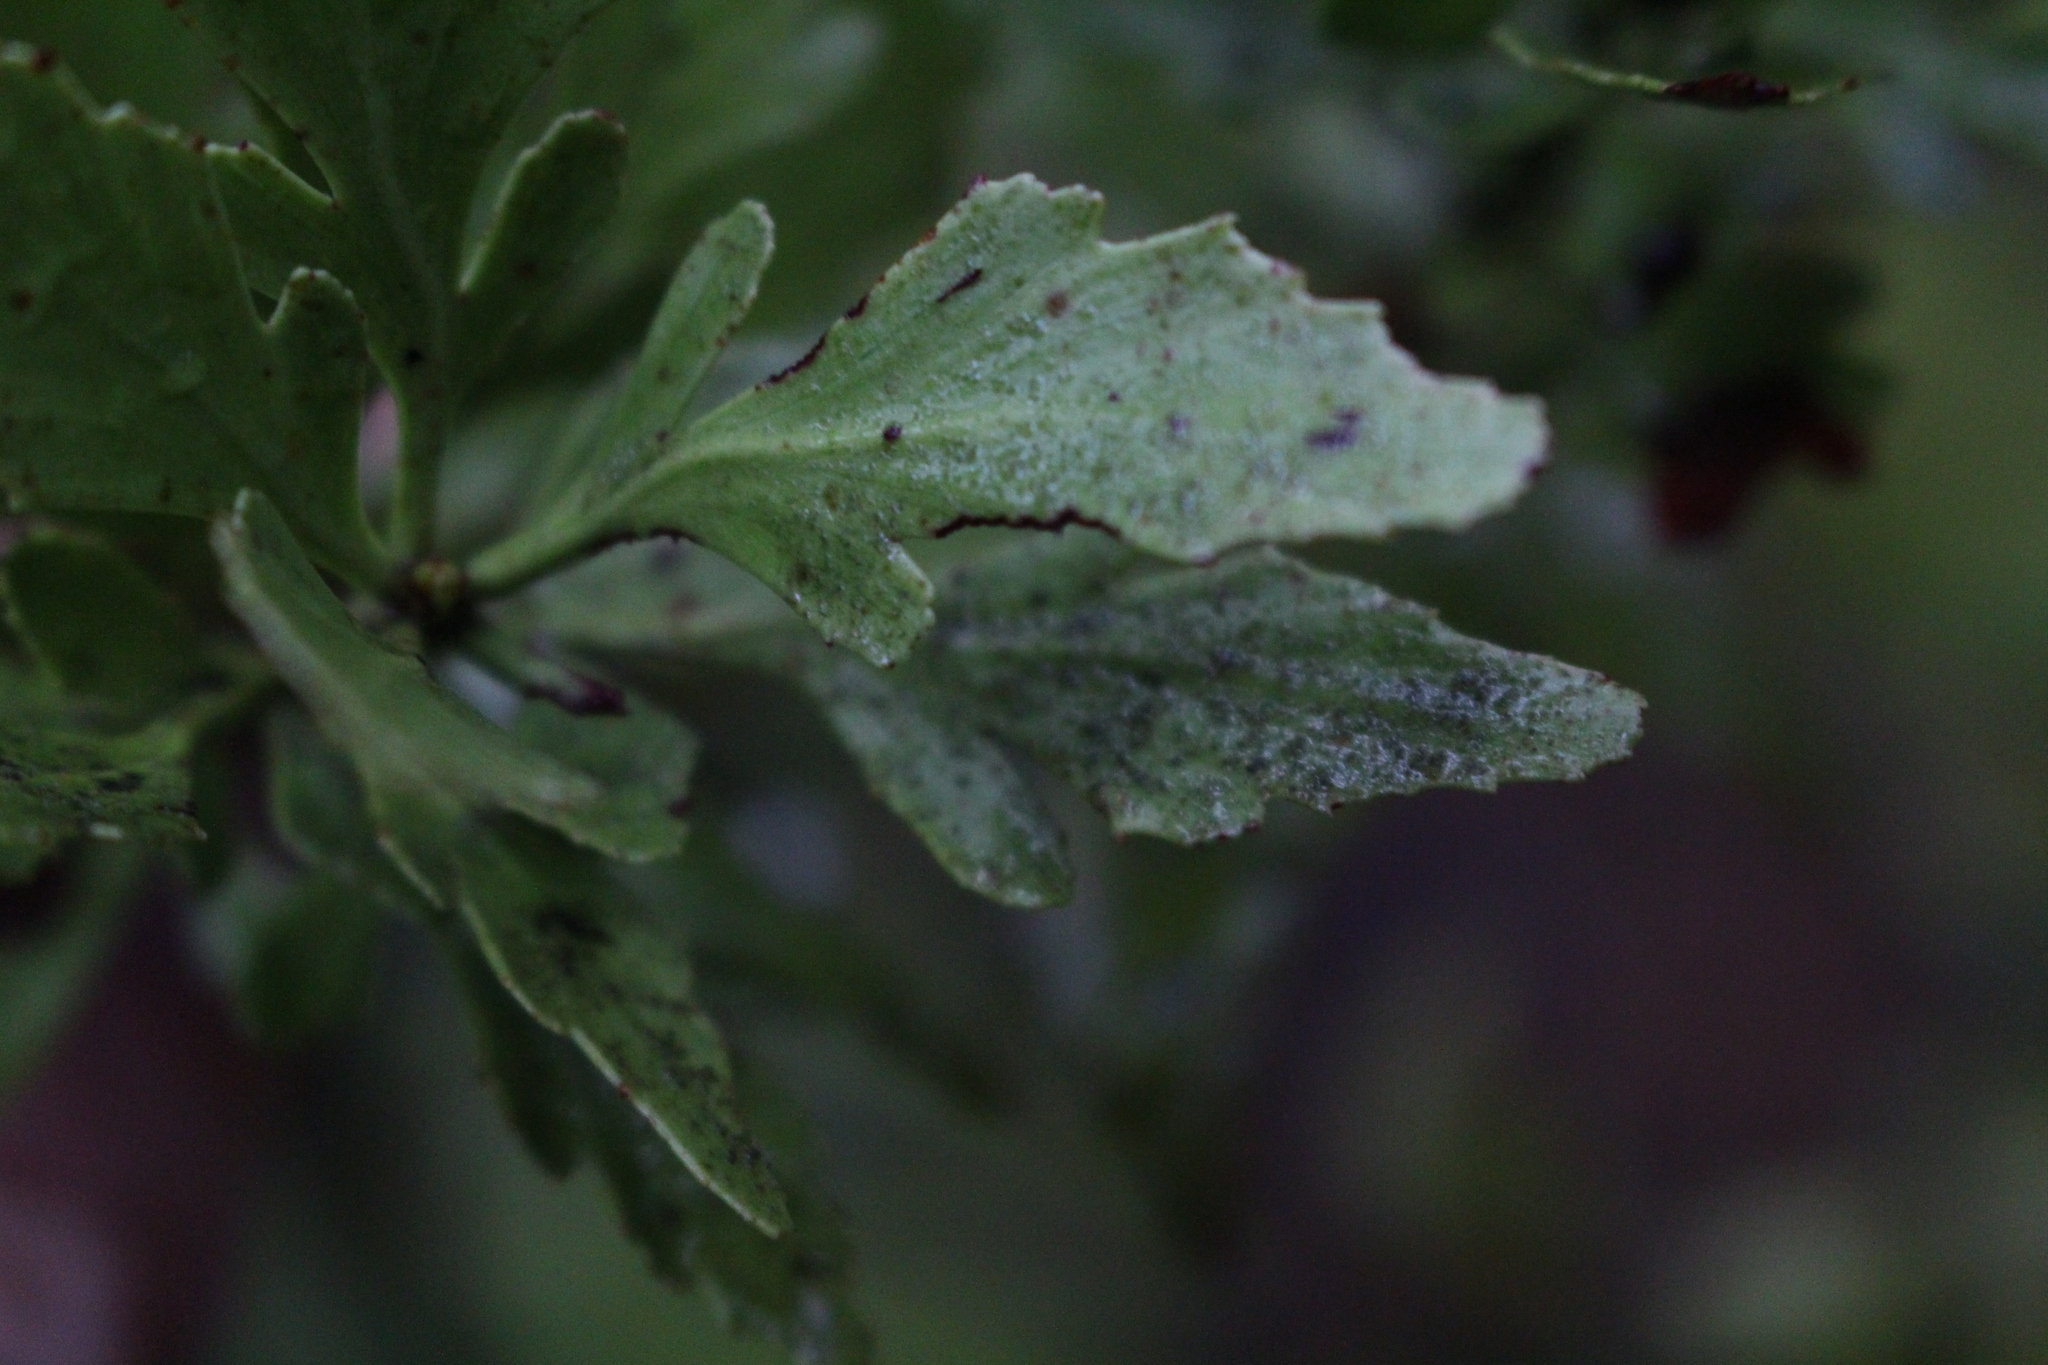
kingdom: Plantae
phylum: Tracheophyta
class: Pinopsida
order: Pinales
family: Phyllocladaceae
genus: Phyllocladus
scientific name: Phyllocladus trichomanoides
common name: Celery pine
